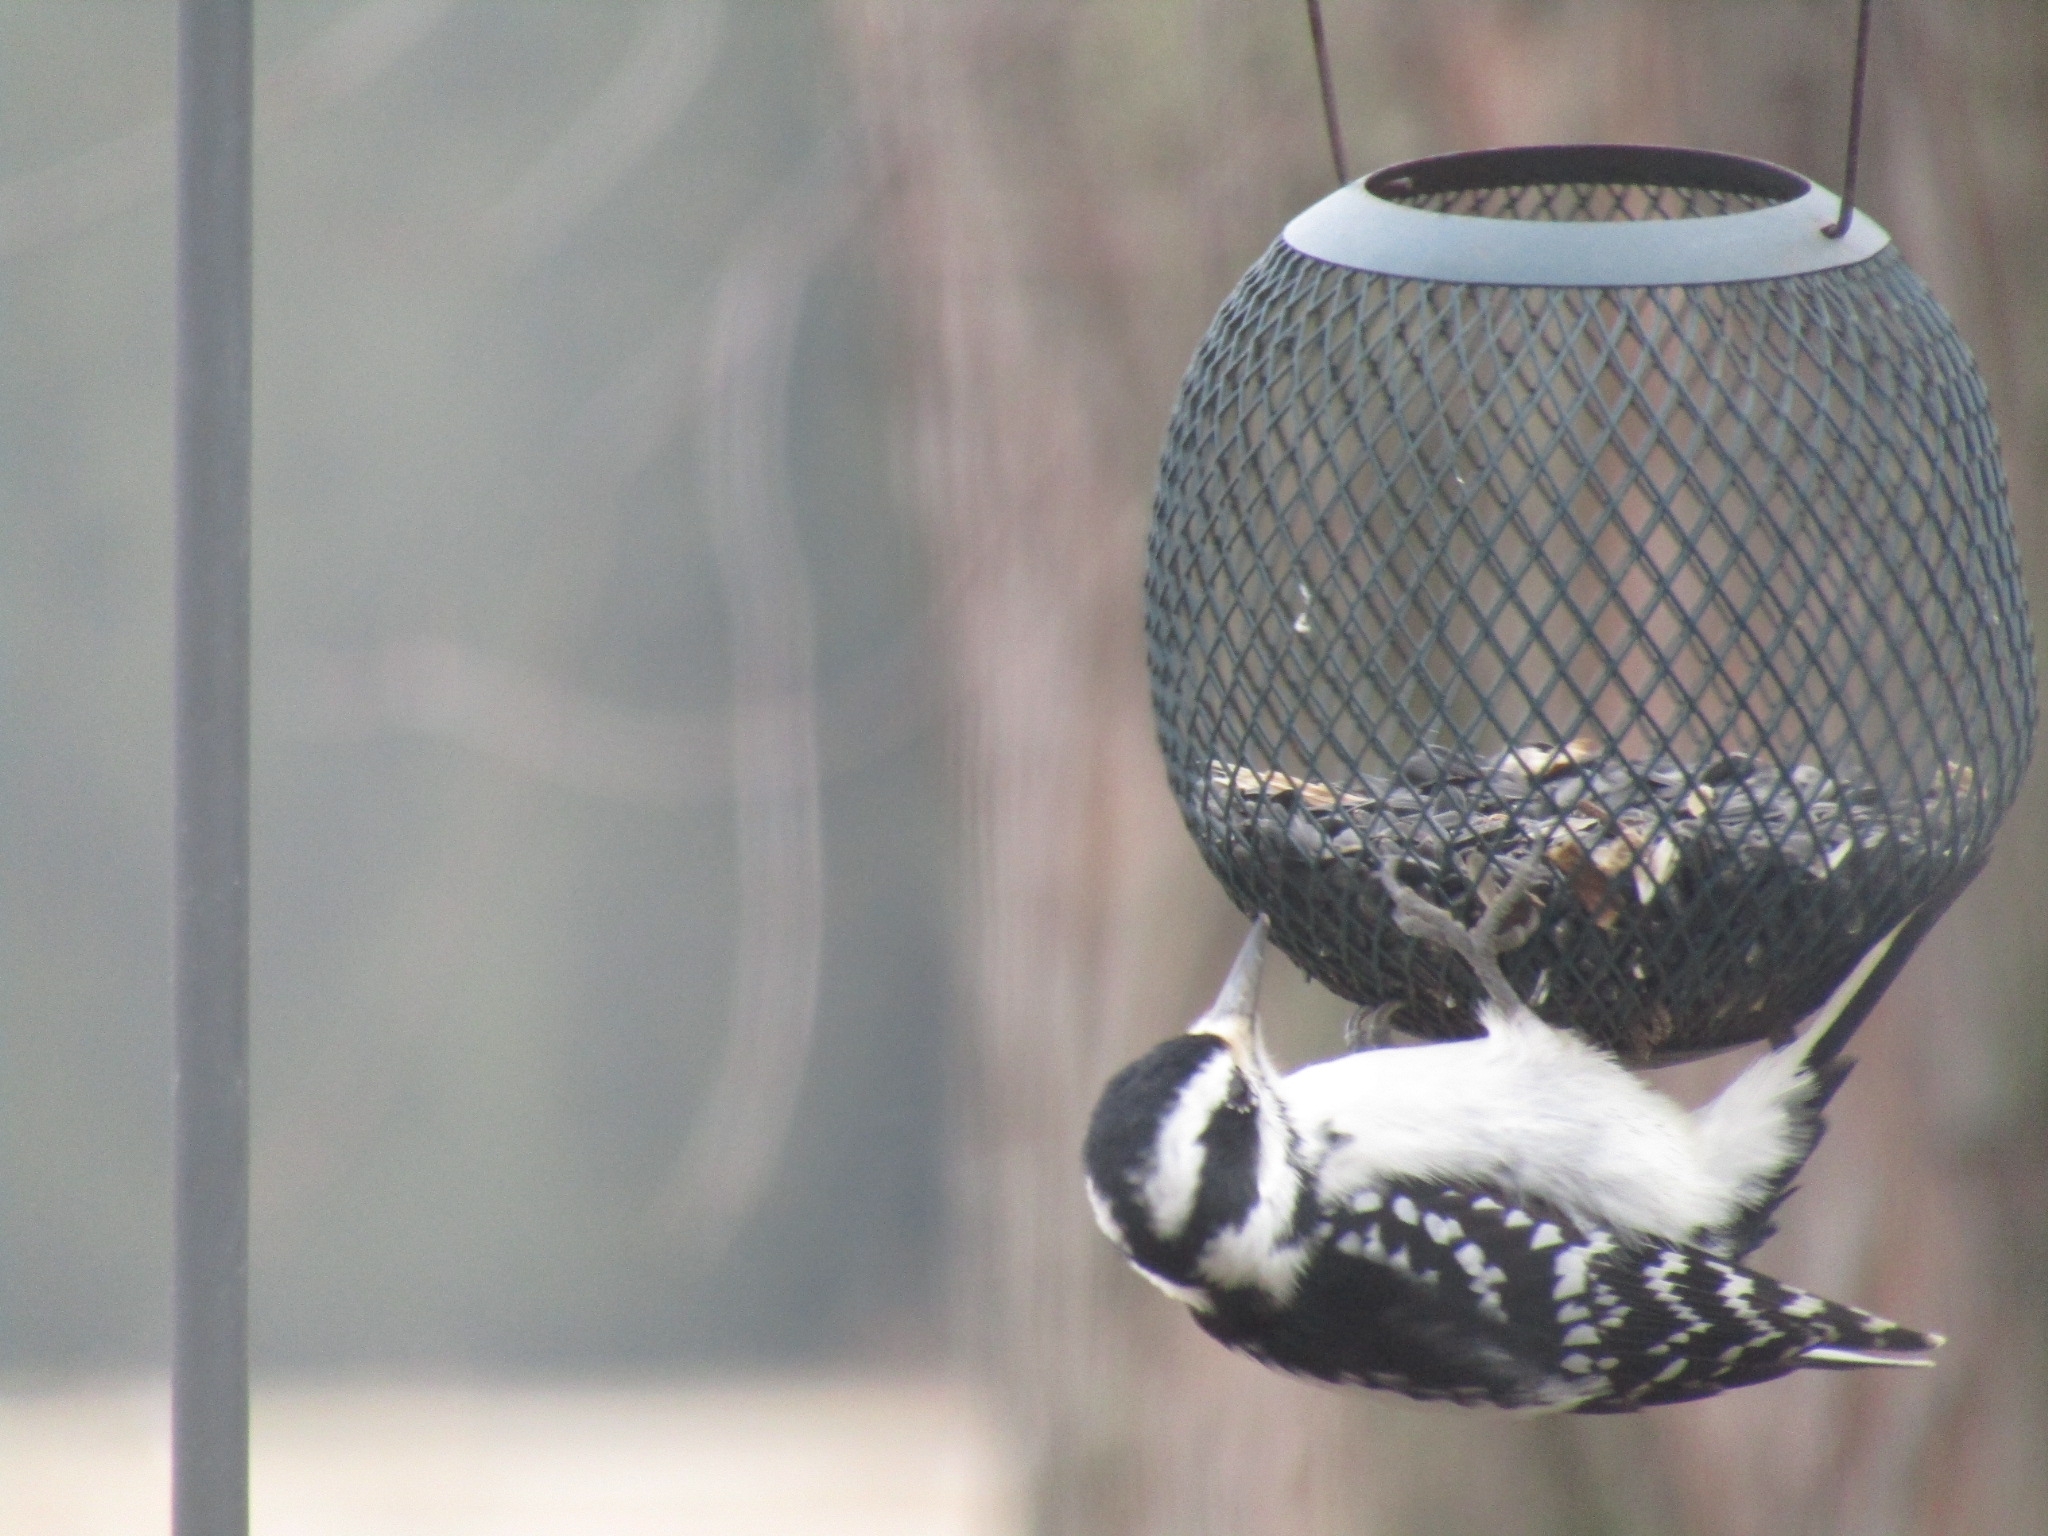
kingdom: Animalia
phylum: Chordata
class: Aves
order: Piciformes
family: Picidae
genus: Leuconotopicus
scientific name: Leuconotopicus villosus
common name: Hairy woodpecker
